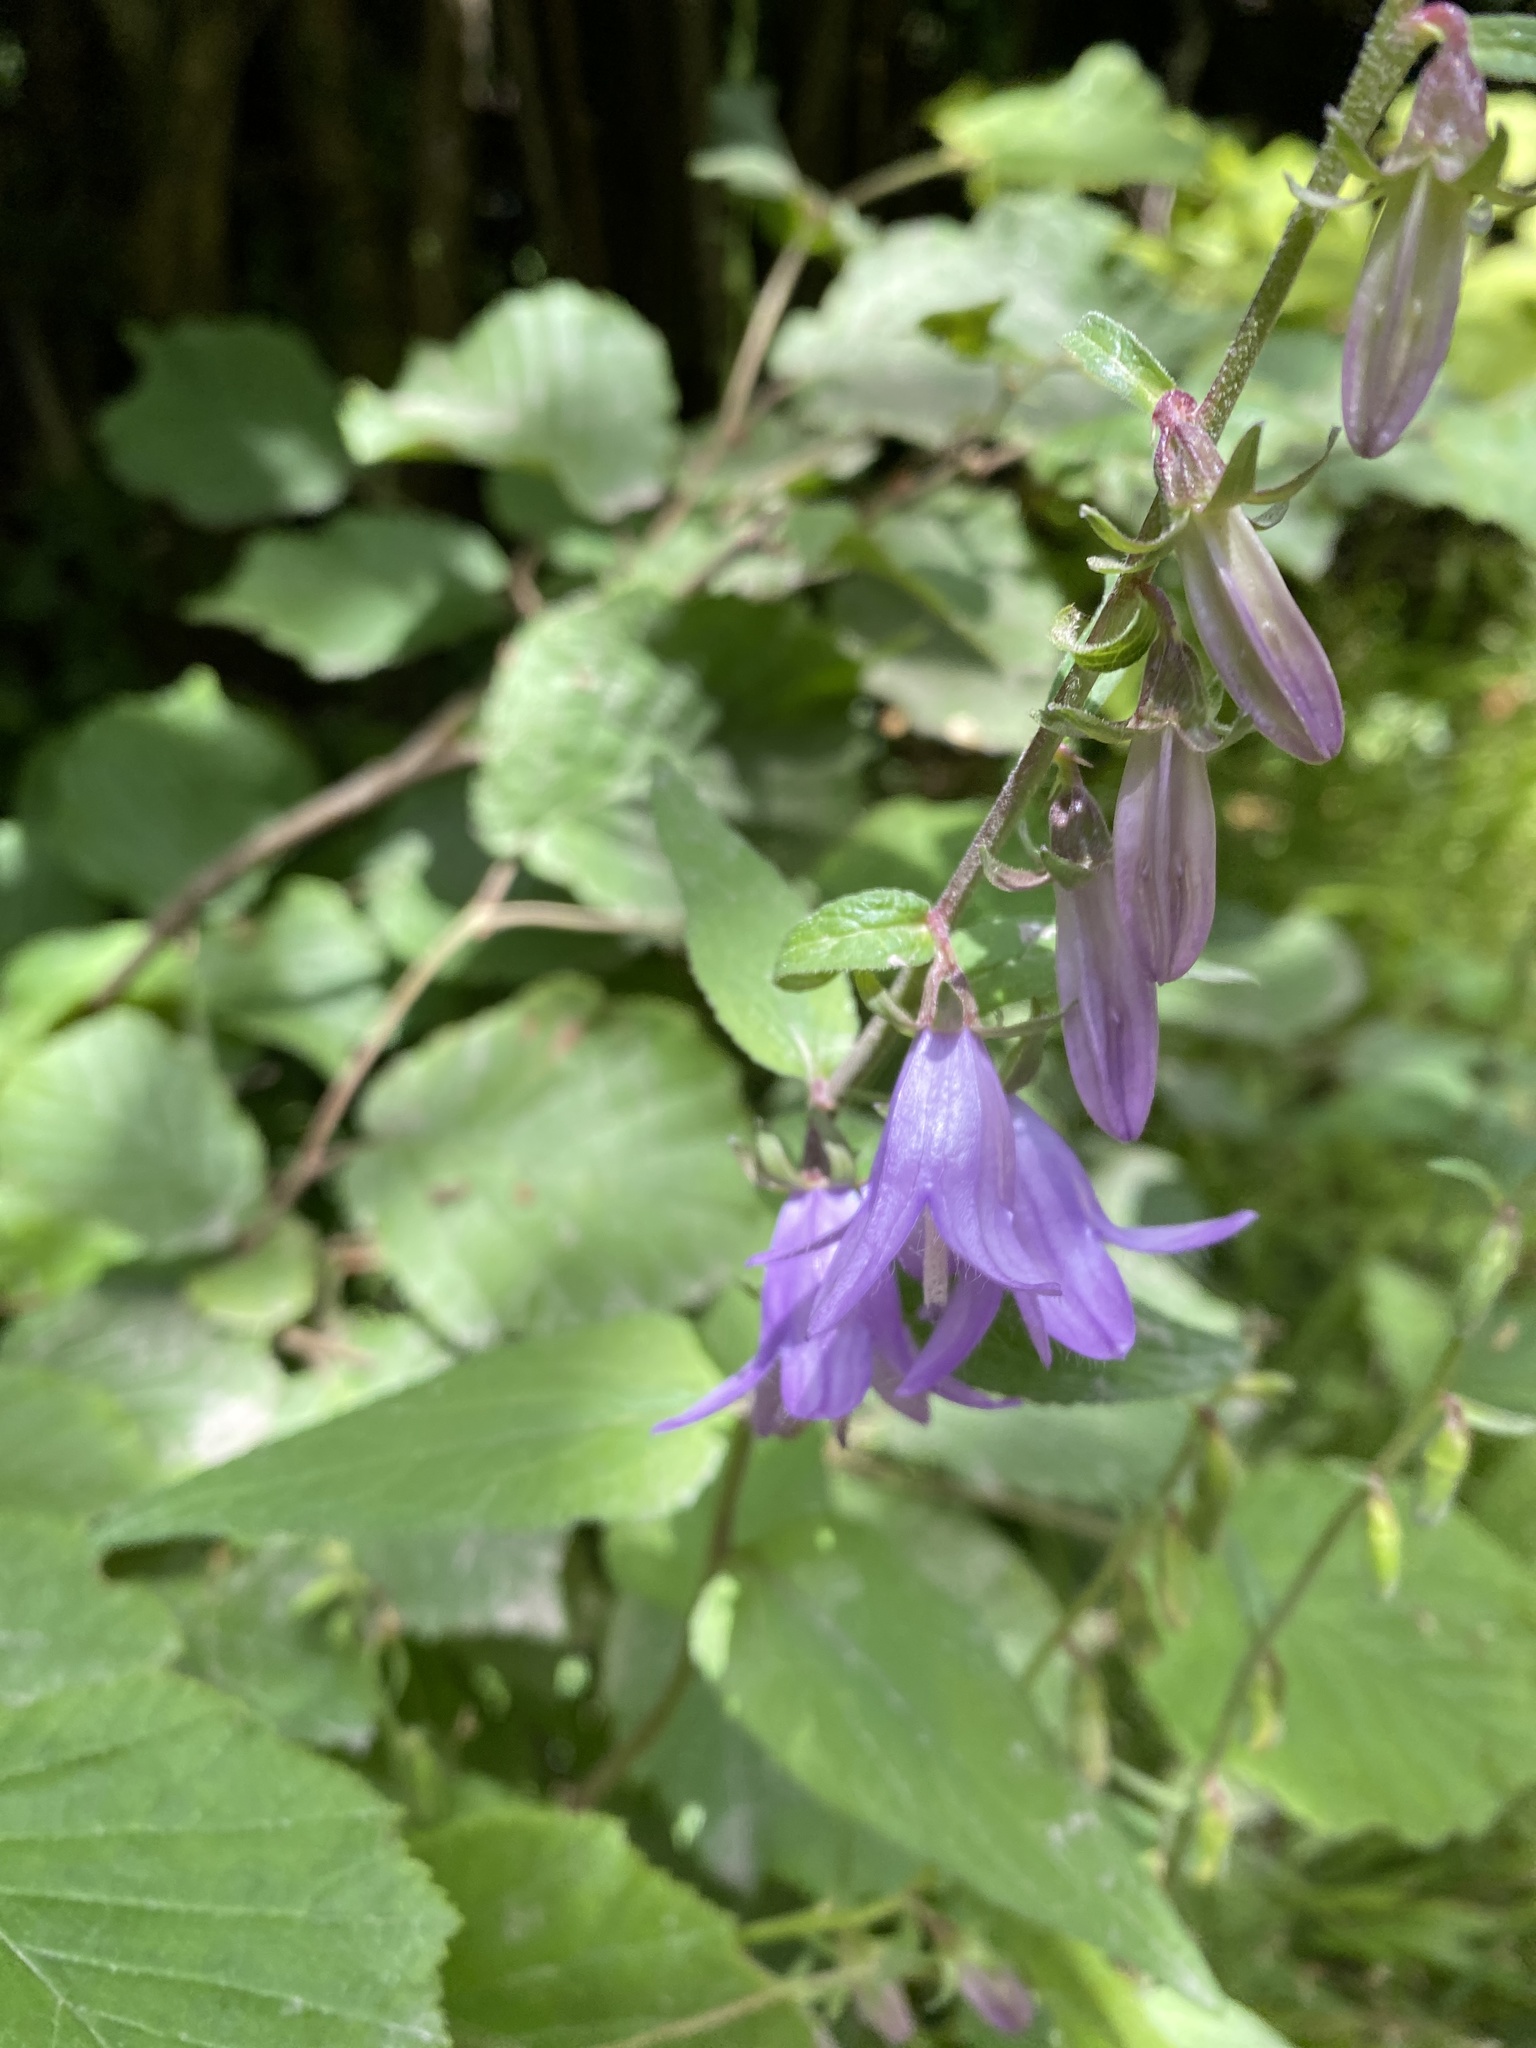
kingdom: Plantae
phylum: Tracheophyta
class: Magnoliopsida
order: Asterales
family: Campanulaceae
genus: Campanula
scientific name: Campanula rapunculoides
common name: Creeping bellflower
